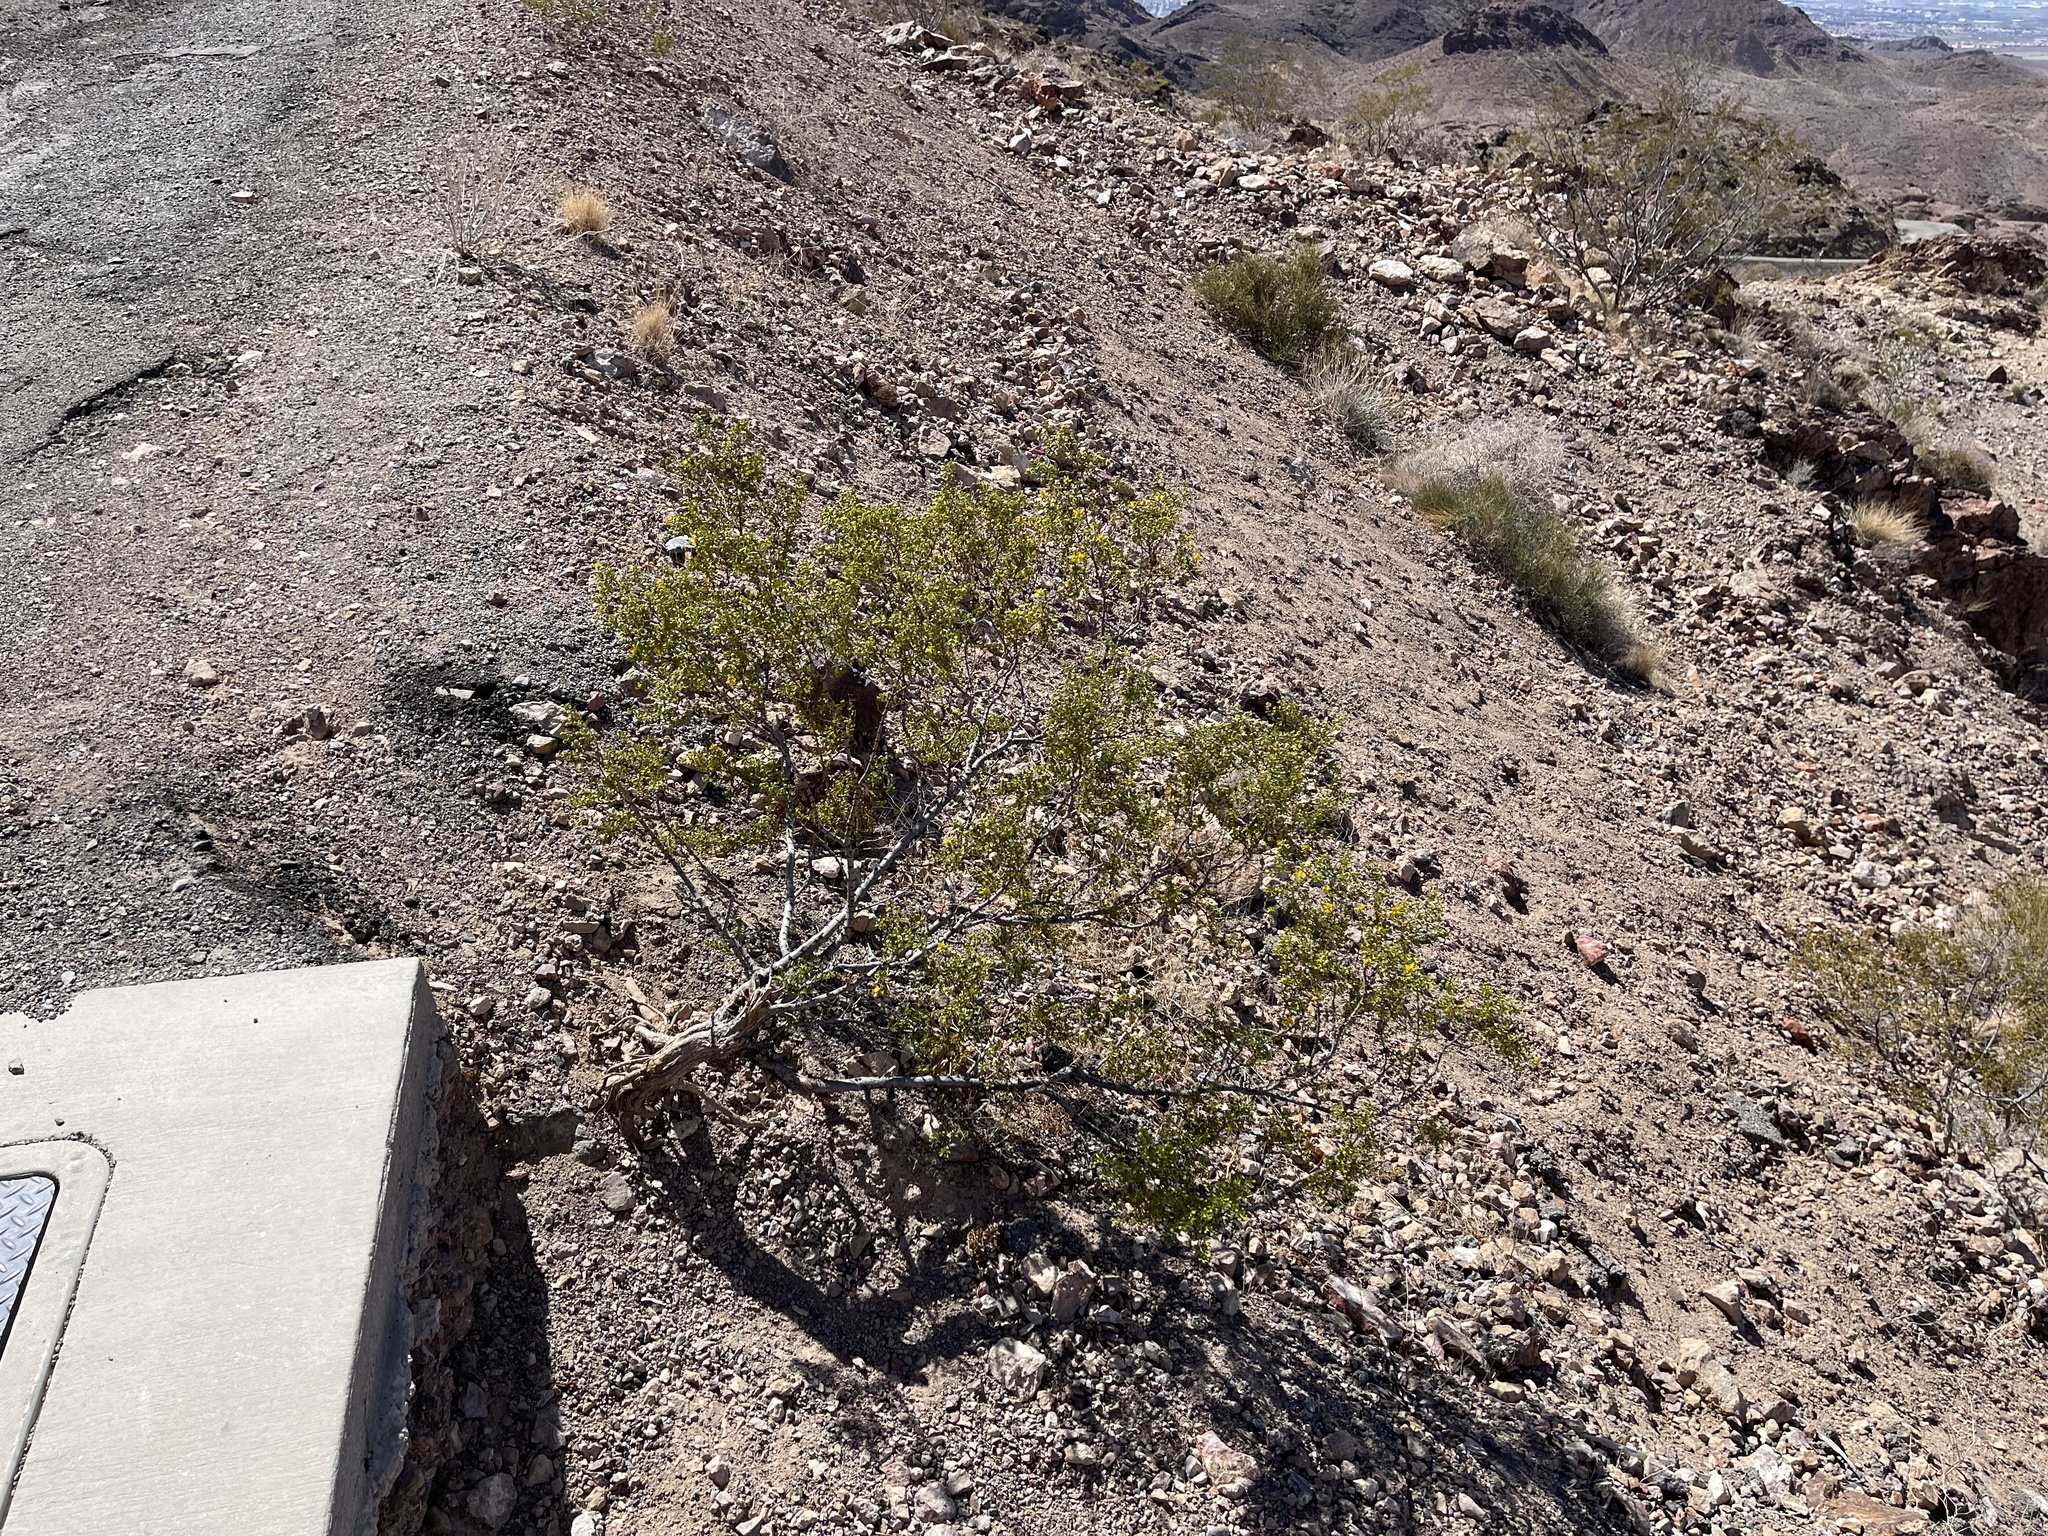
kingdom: Plantae
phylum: Tracheophyta
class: Magnoliopsida
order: Zygophyllales
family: Zygophyllaceae
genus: Larrea
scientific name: Larrea tridentata
